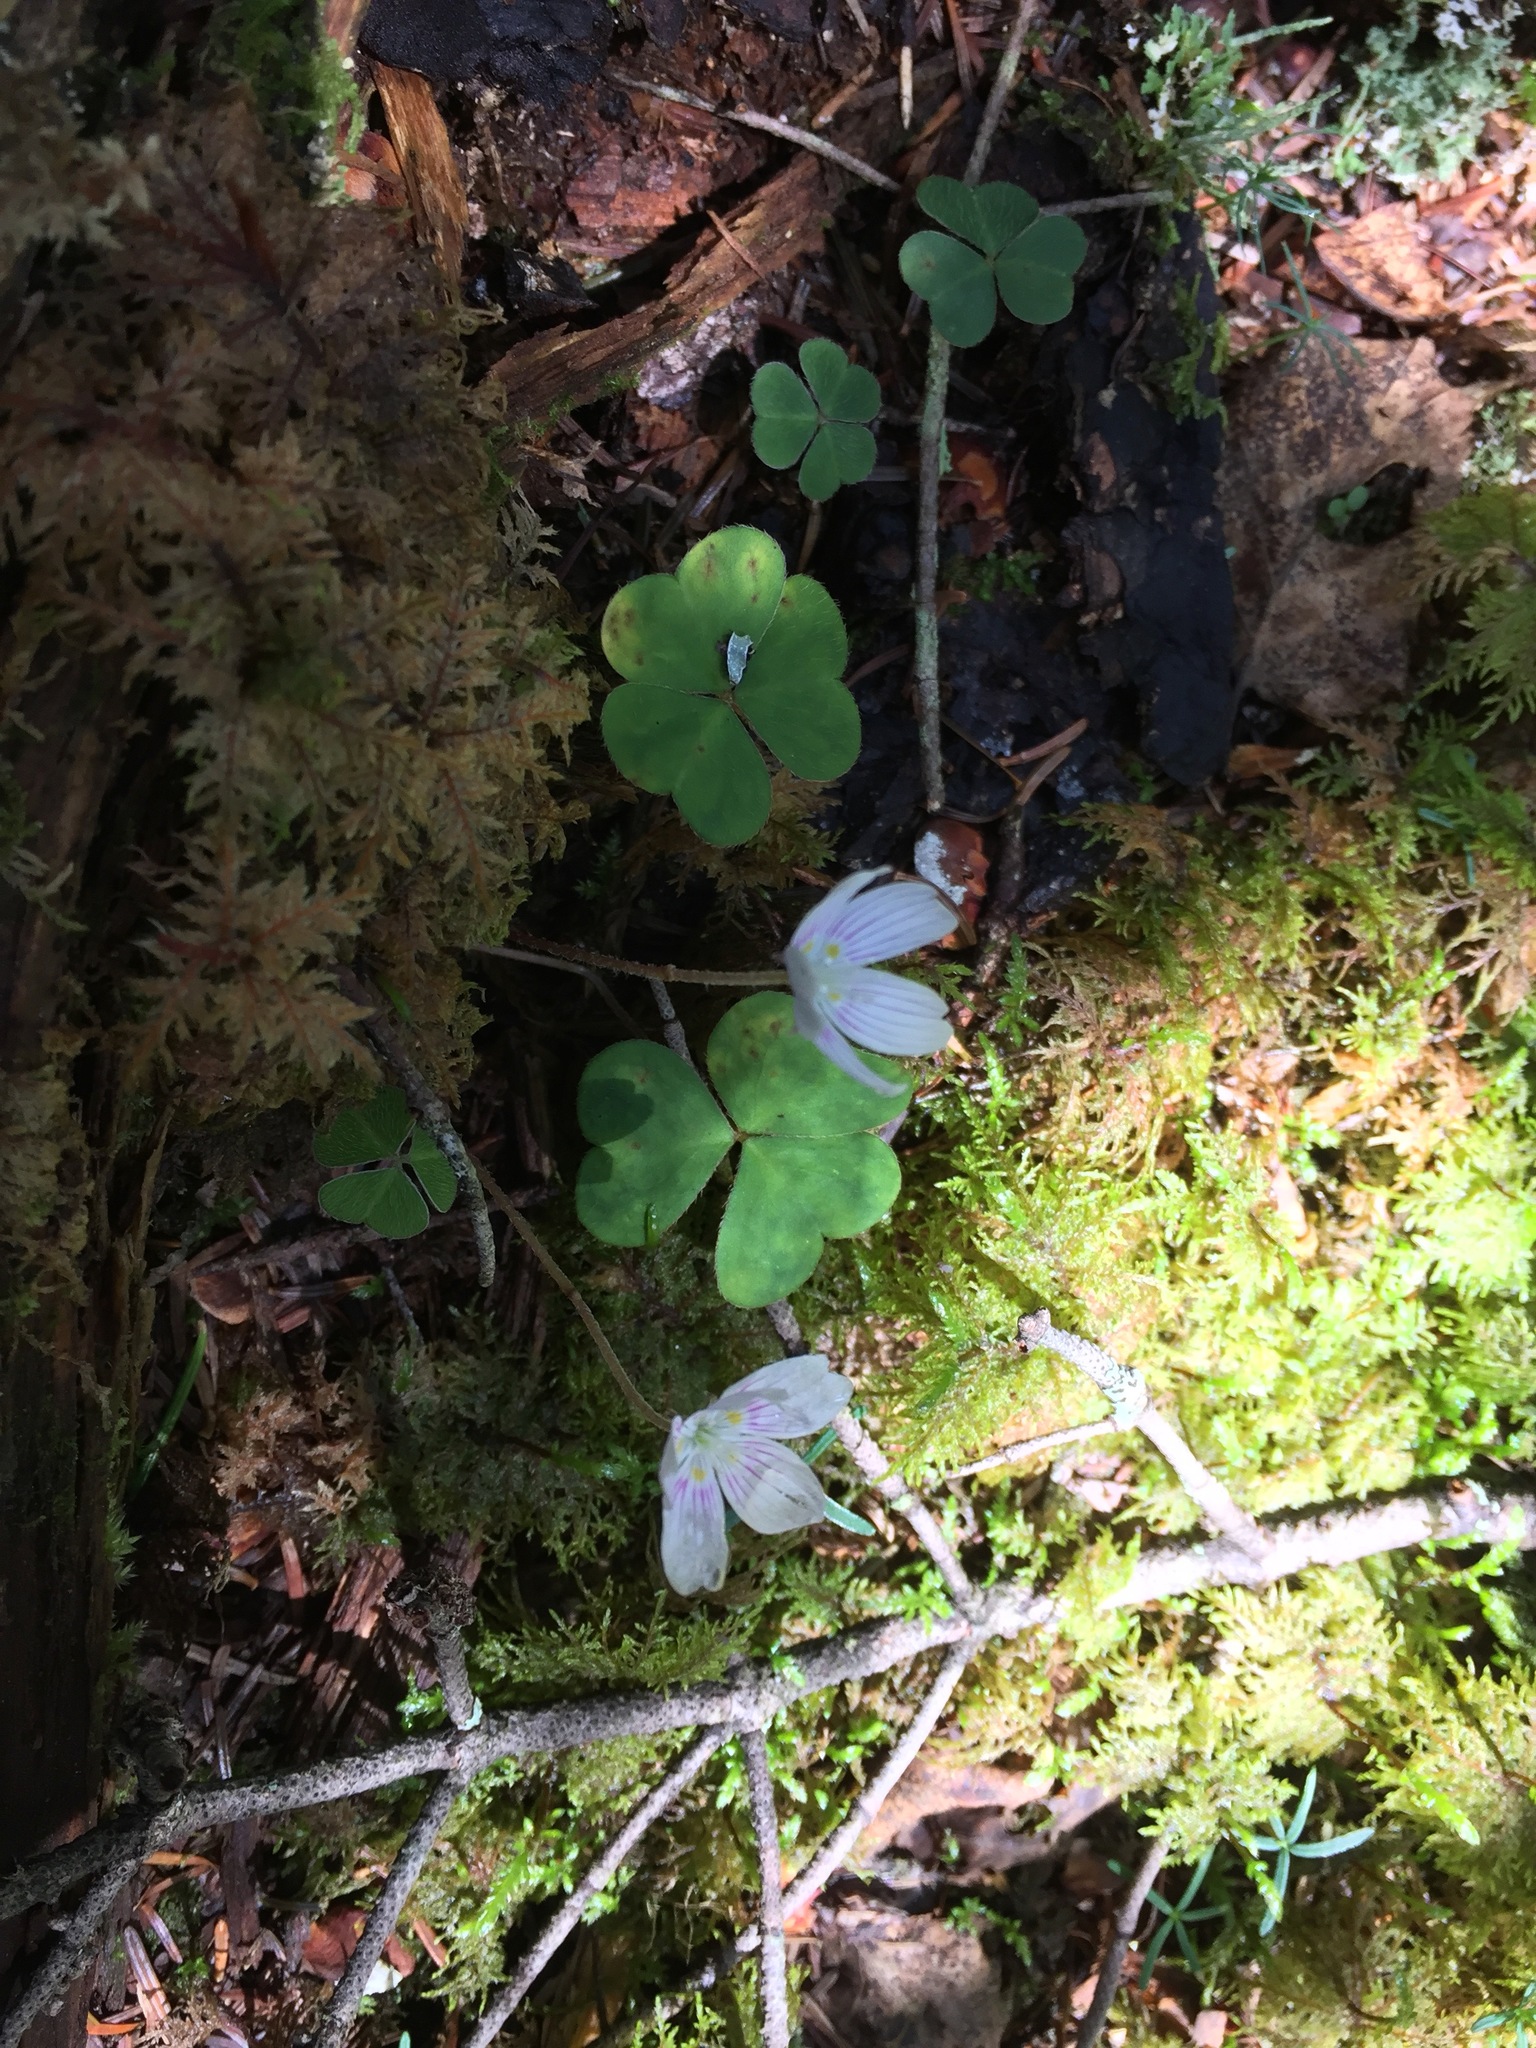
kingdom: Plantae
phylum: Tracheophyta
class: Magnoliopsida
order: Oxalidales
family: Oxalidaceae
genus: Oxalis
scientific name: Oxalis montana
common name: American wood-sorrel
